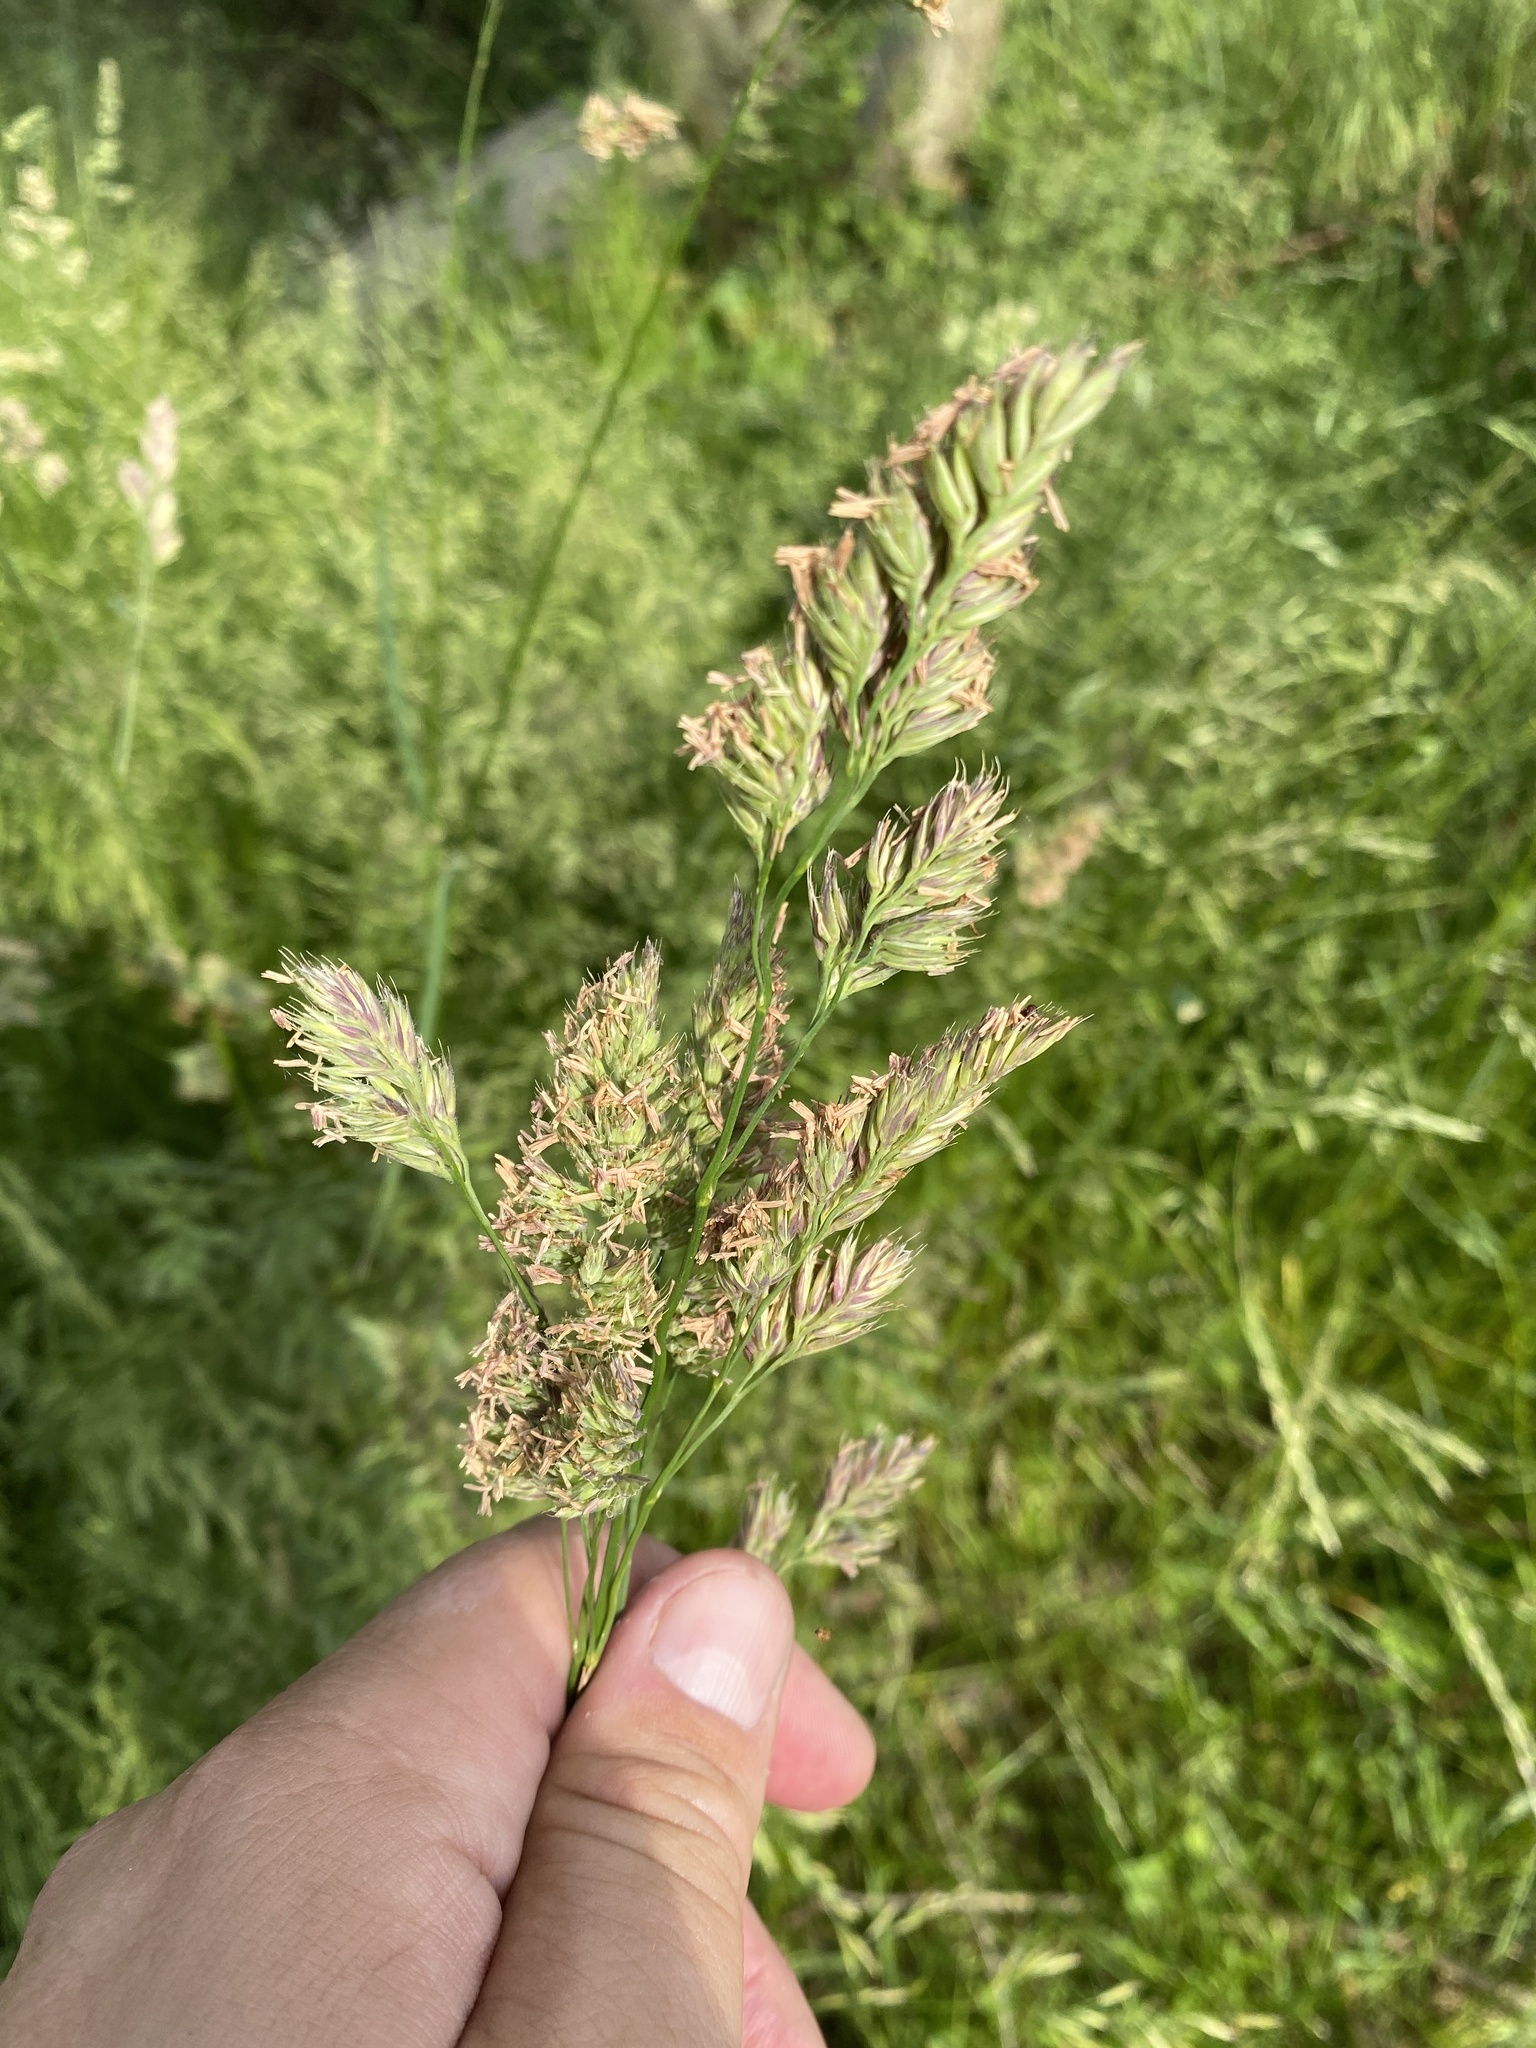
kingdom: Plantae
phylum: Tracheophyta
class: Liliopsida
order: Poales
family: Poaceae
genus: Dactylis
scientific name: Dactylis glomerata
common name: Orchardgrass
